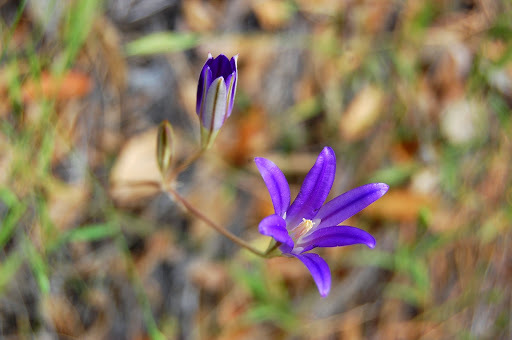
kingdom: Plantae
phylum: Tracheophyta
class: Liliopsida
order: Asparagales
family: Asparagaceae
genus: Brodiaea
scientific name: Brodiaea elegans
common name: Elegant cluster-lily
